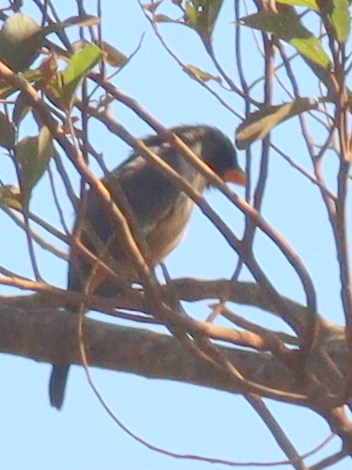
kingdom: Animalia
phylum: Chordata
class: Aves
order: Passeriformes
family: Thraupidae
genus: Saltatricula
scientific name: Saltatricula atricollis
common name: Black-throated saltator
